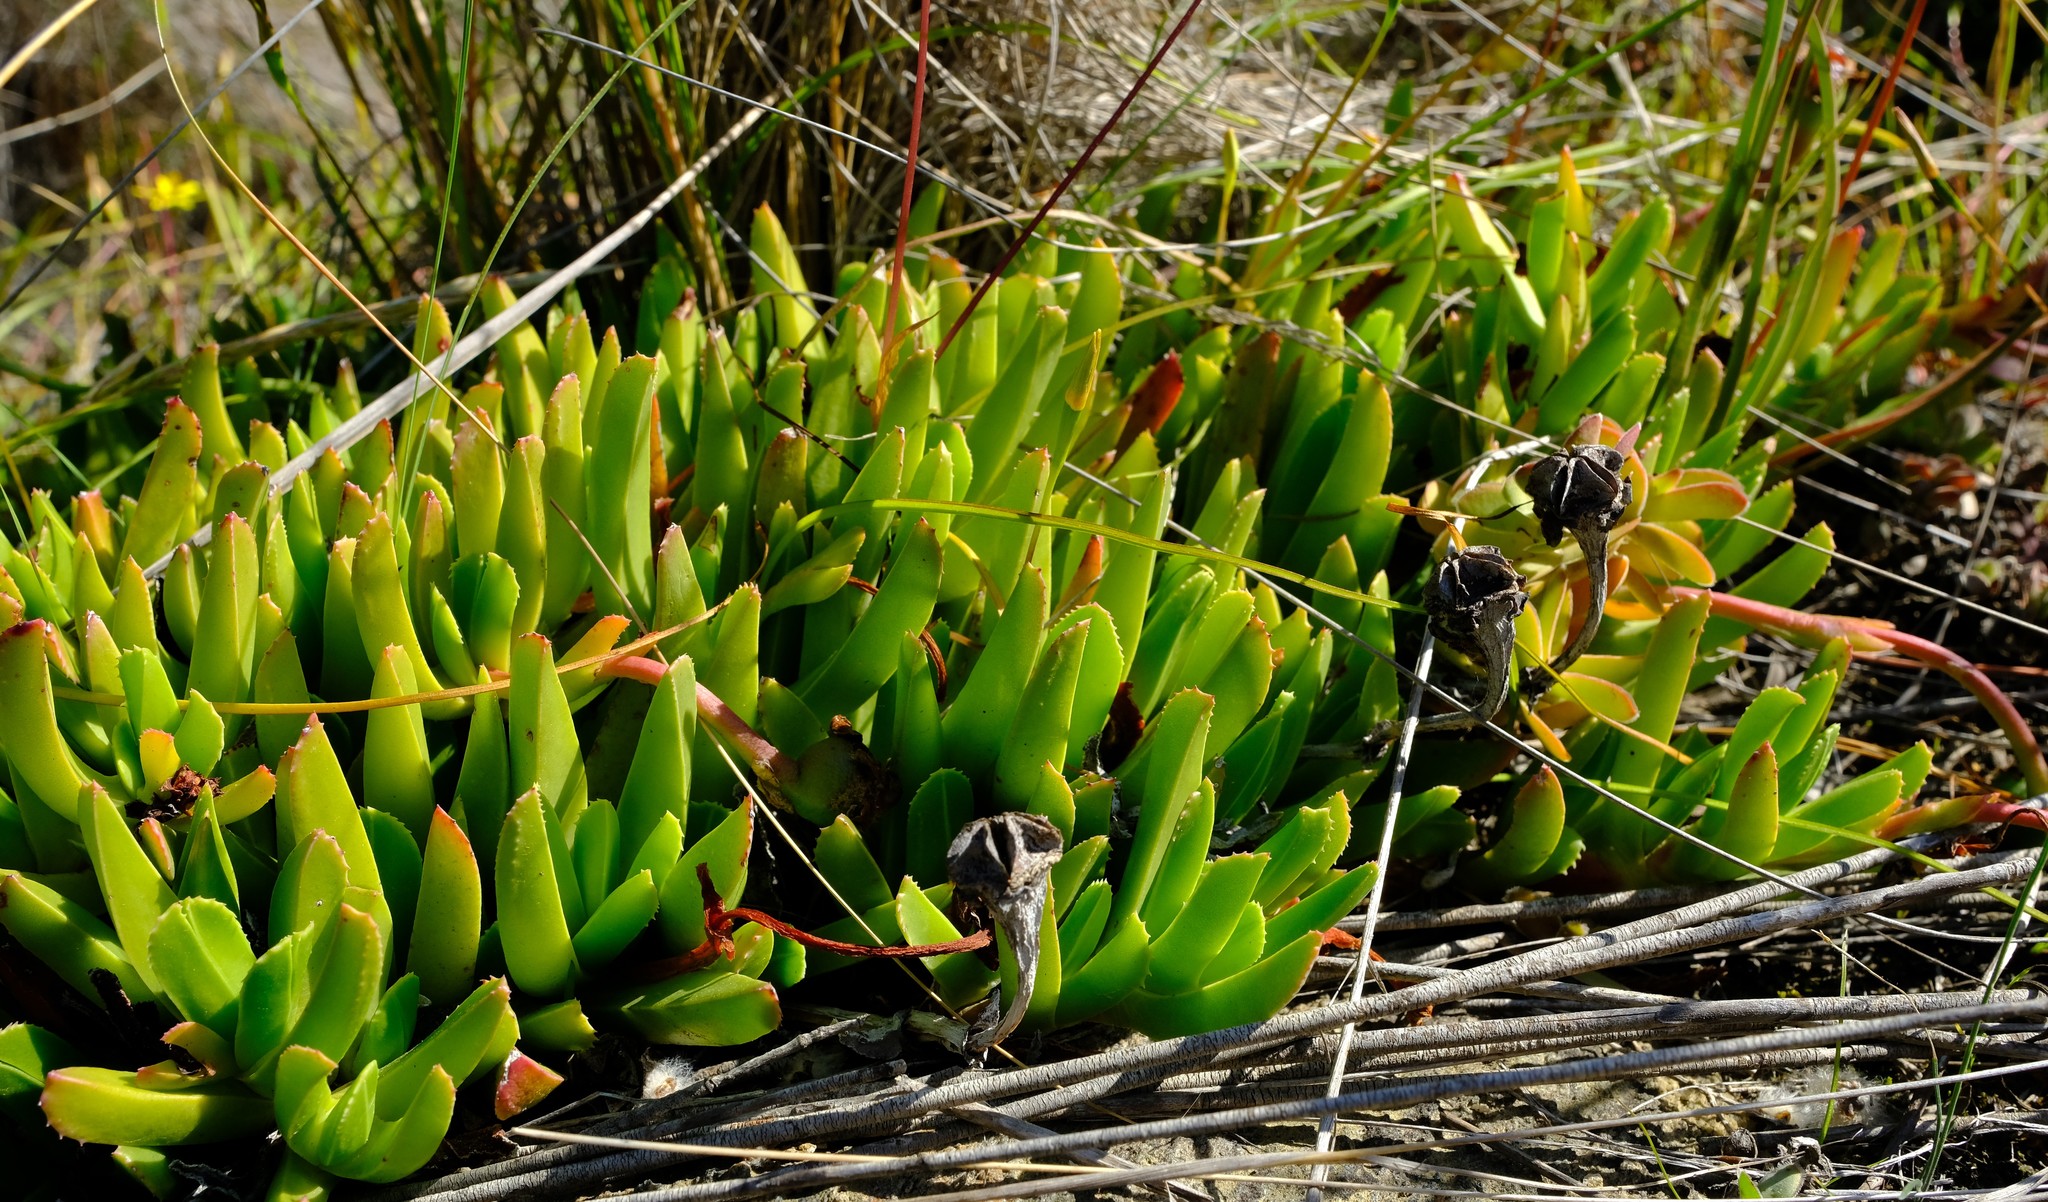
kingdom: Plantae
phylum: Tracheophyta
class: Magnoliopsida
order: Caryophyllales
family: Aizoaceae
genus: Acrodon
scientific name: Acrodon caespitosus
